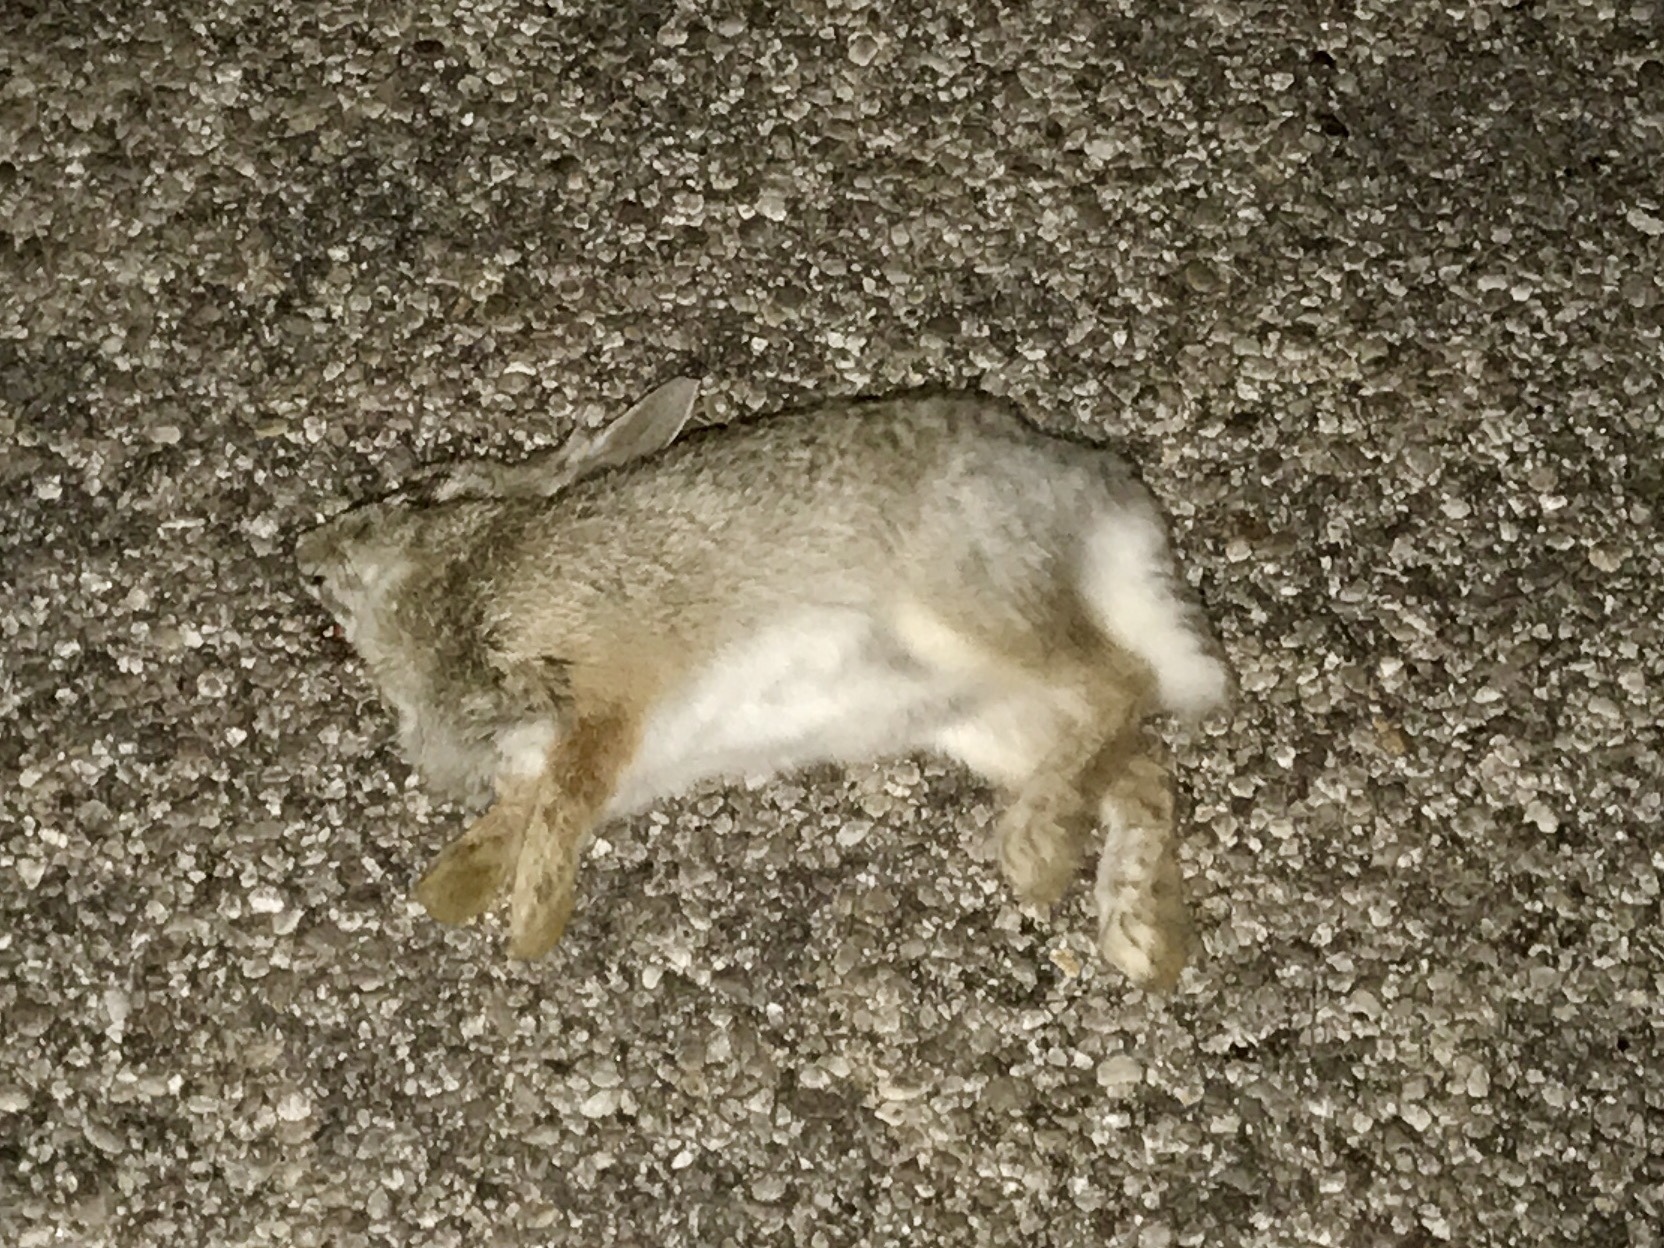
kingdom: Animalia
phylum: Chordata
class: Mammalia
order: Lagomorpha
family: Leporidae
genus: Sylvilagus
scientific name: Sylvilagus audubonii
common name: Desert cottontail
